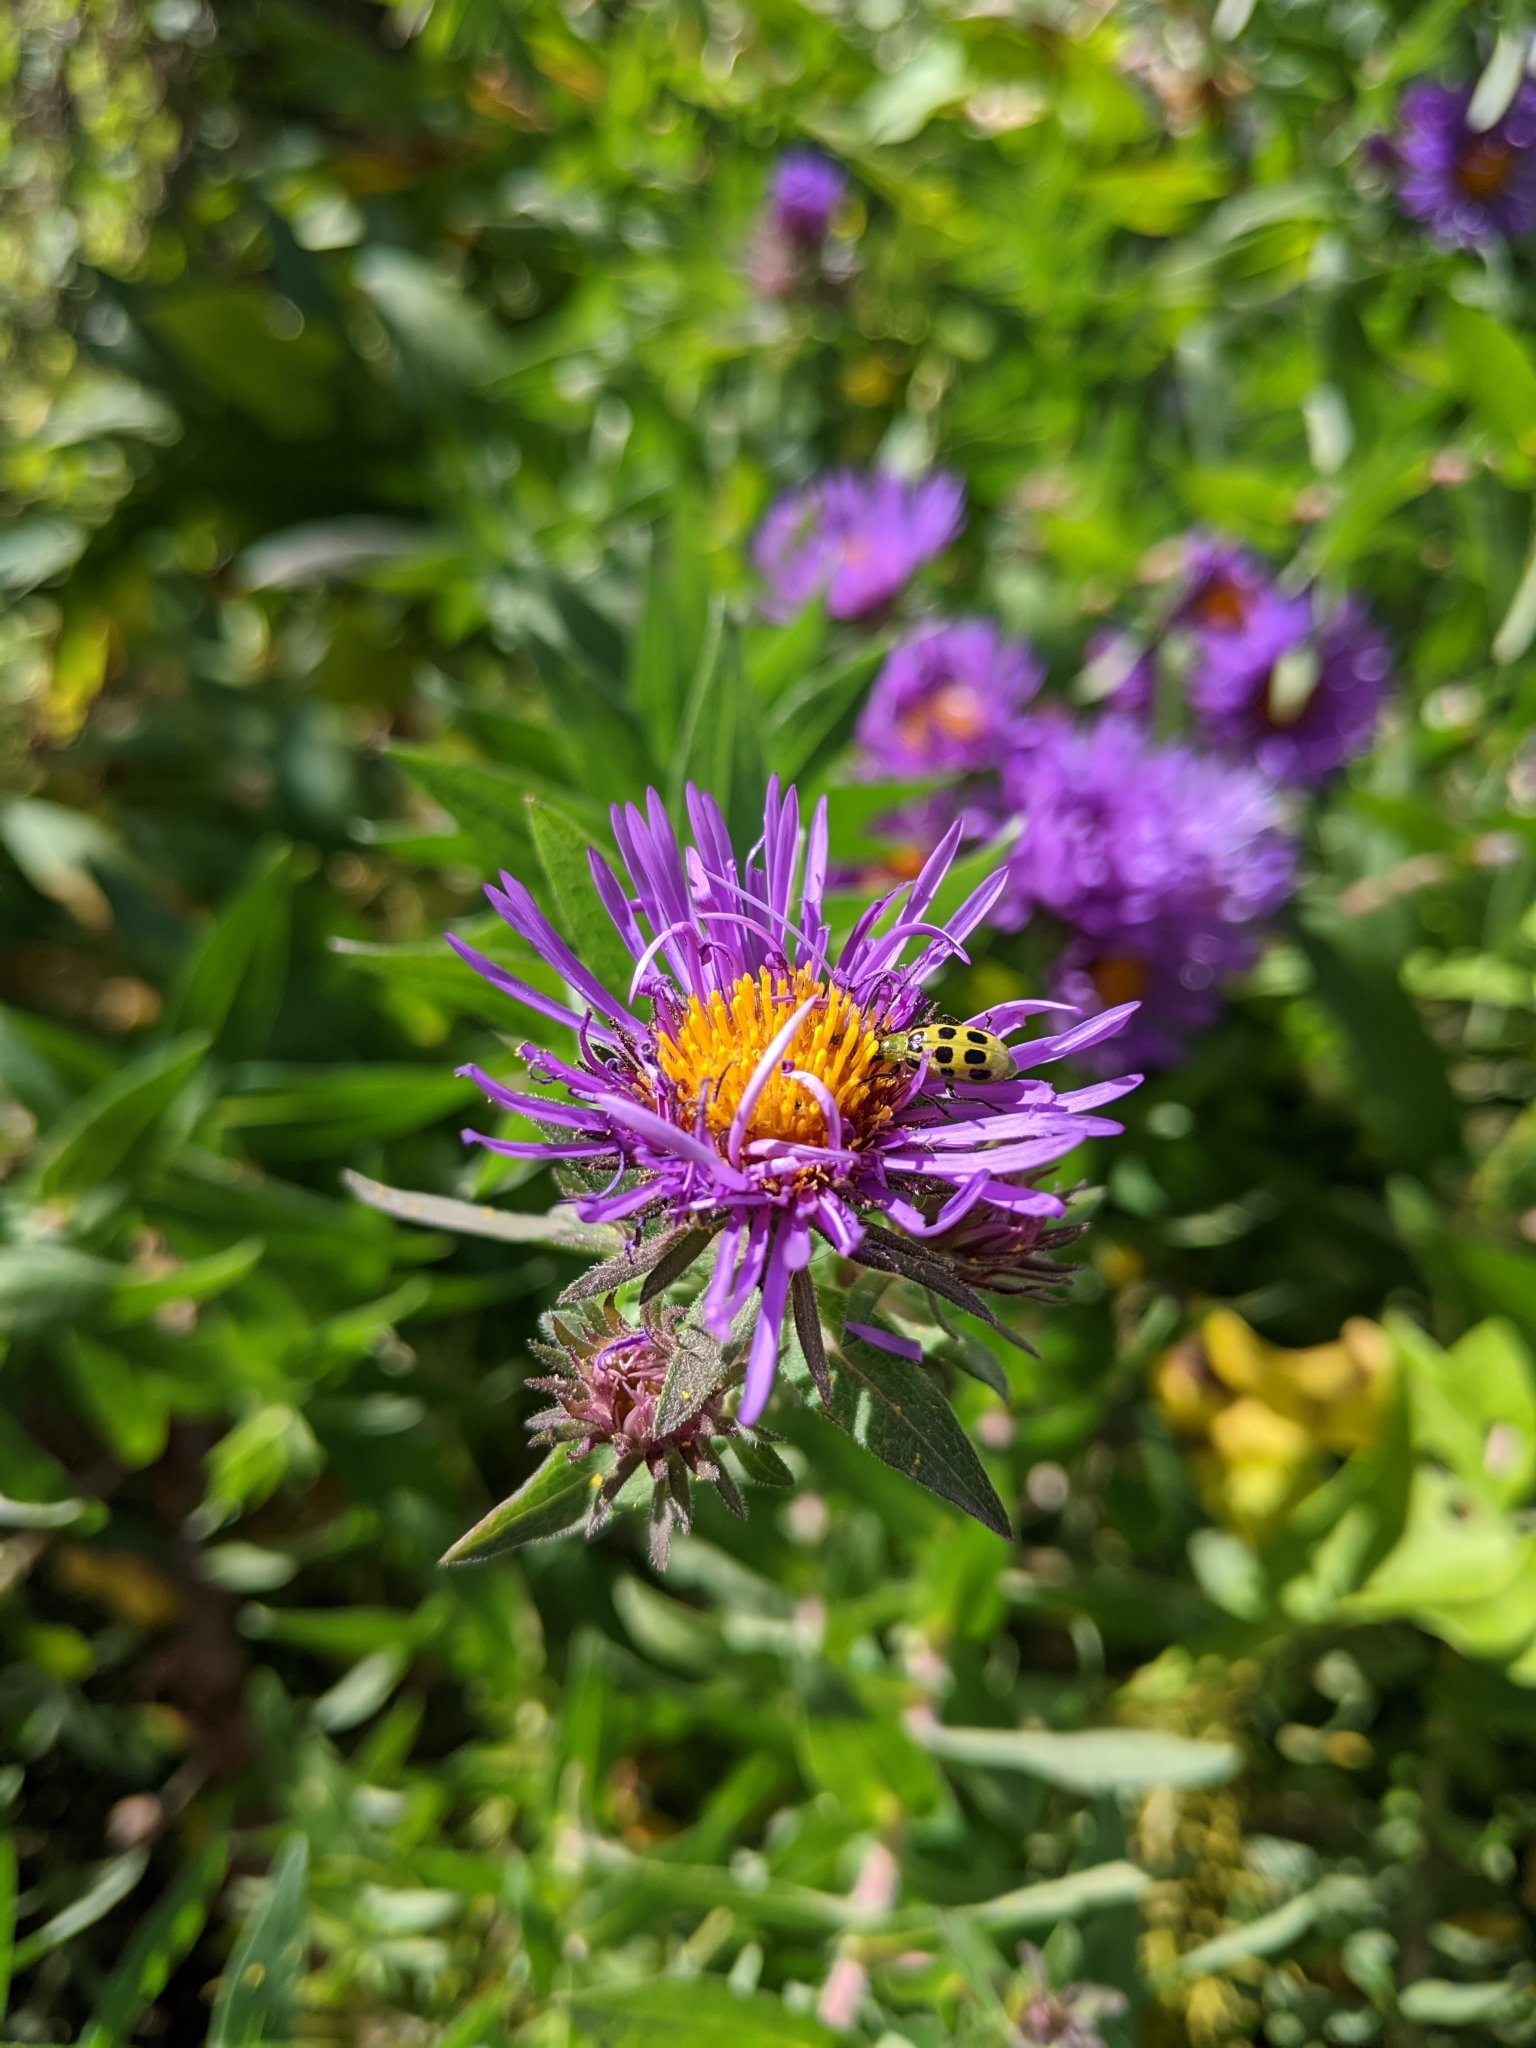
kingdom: Animalia
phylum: Arthropoda
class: Insecta
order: Coleoptera
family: Chrysomelidae
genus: Diabrotica
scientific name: Diabrotica undecimpunctata
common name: Spotted cucumber beetle
